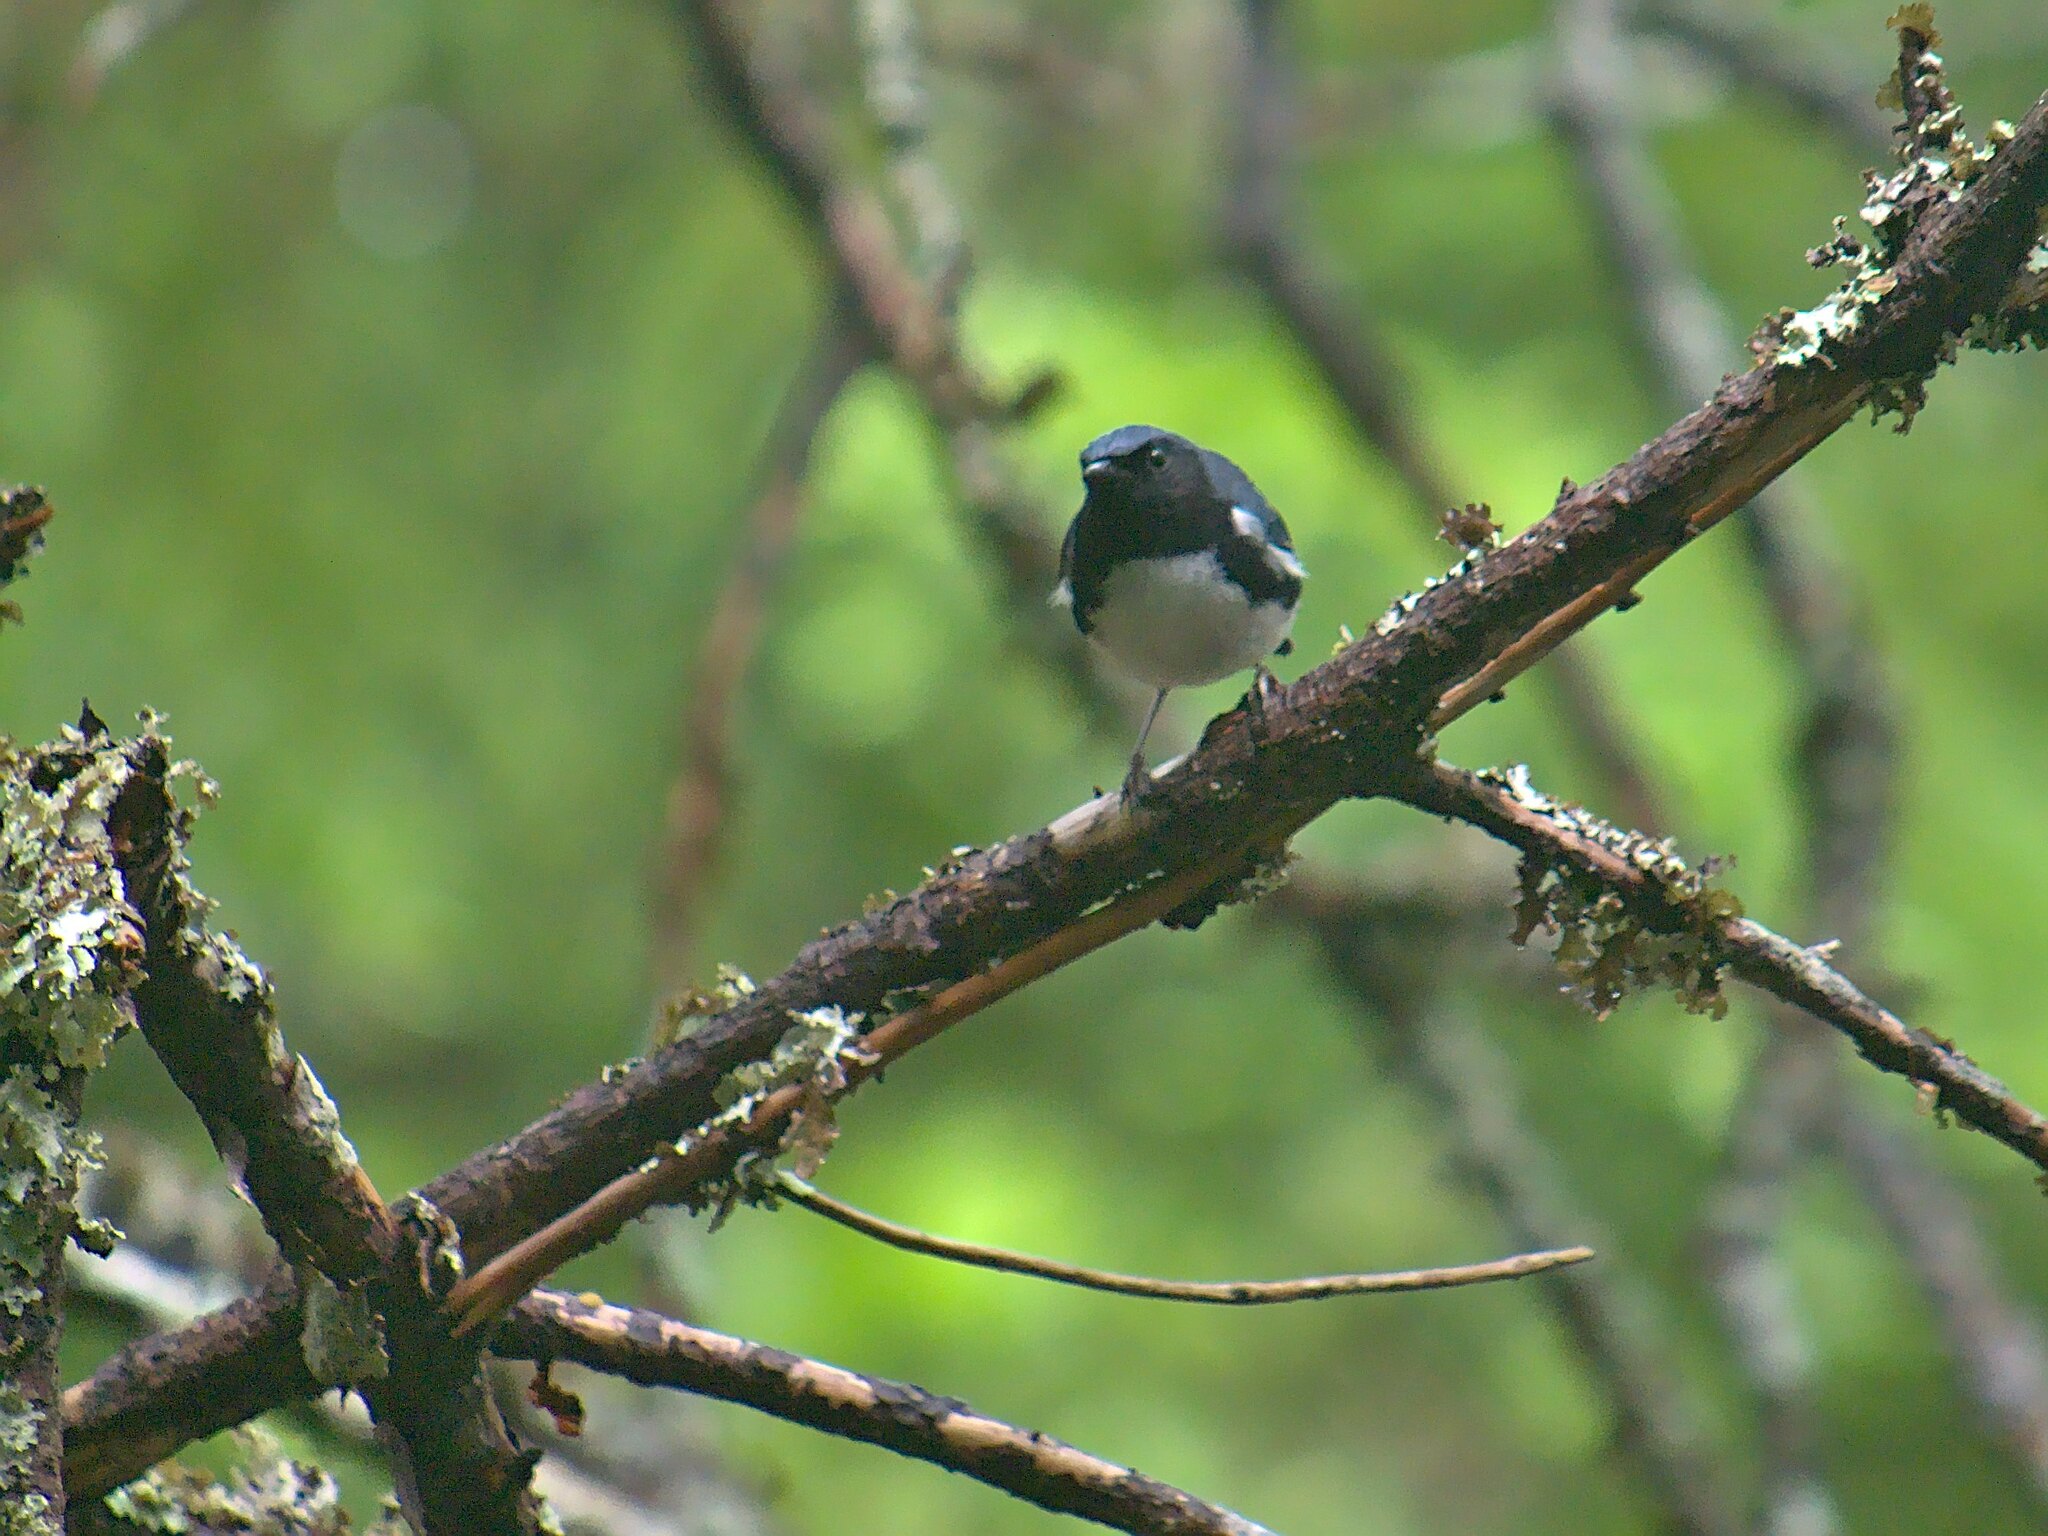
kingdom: Animalia
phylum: Chordata
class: Aves
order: Passeriformes
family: Parulidae
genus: Setophaga
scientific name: Setophaga caerulescens
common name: Black-throated blue warbler
